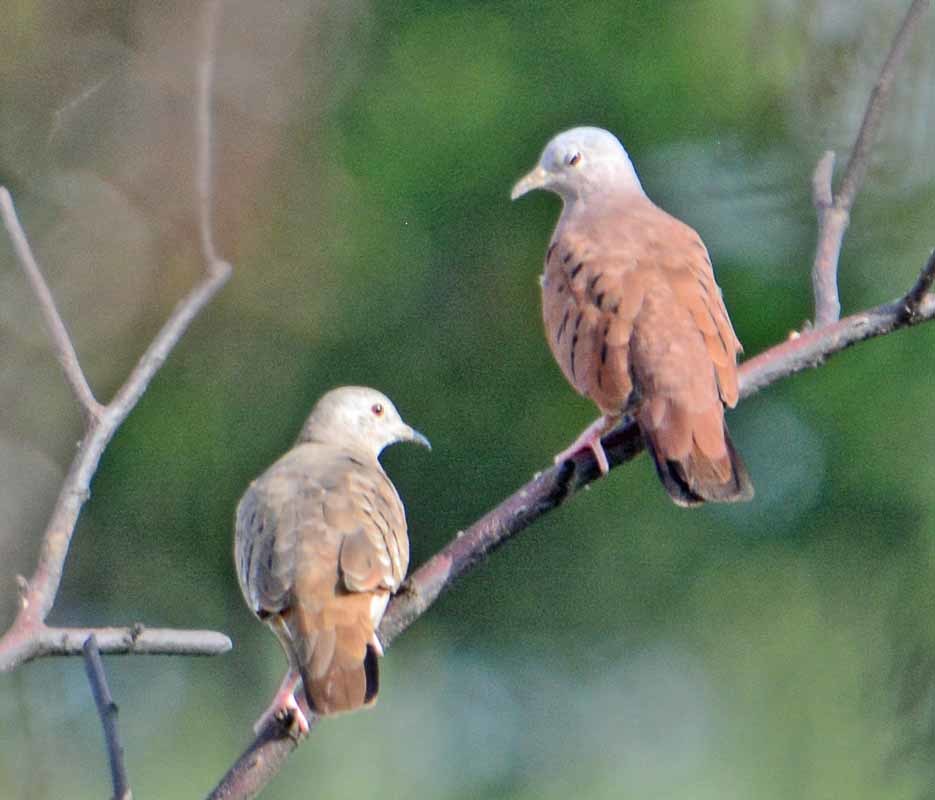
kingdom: Animalia
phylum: Chordata
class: Aves
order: Columbiformes
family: Columbidae
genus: Columbina
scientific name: Columbina talpacoti
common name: Ruddy ground dove
